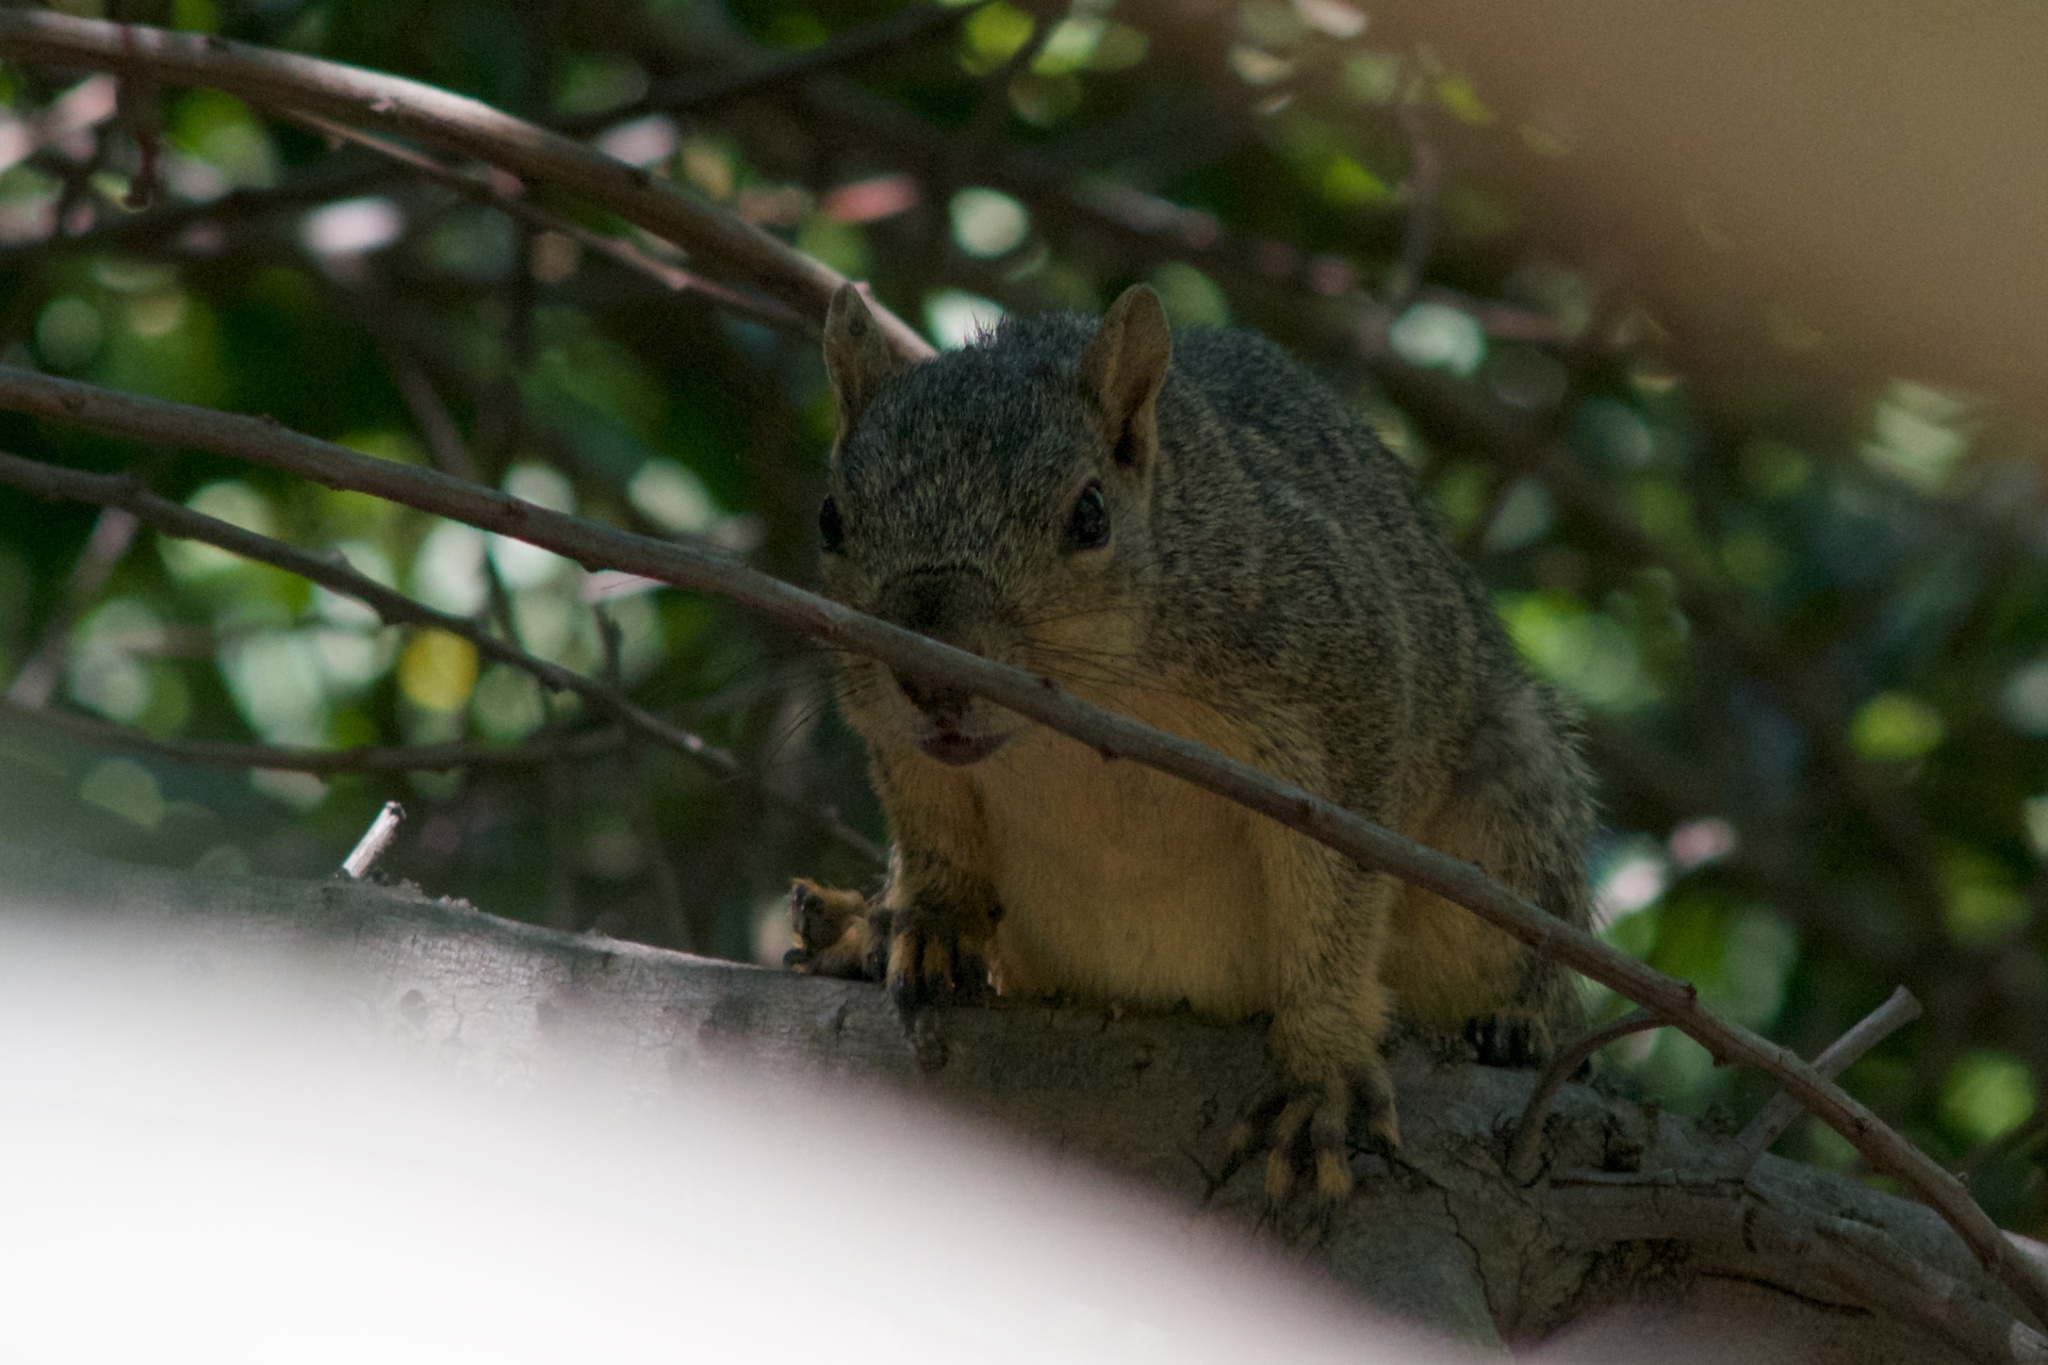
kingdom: Animalia
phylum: Chordata
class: Mammalia
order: Rodentia
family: Sciuridae
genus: Sciurus
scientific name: Sciurus niger
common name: Fox squirrel
